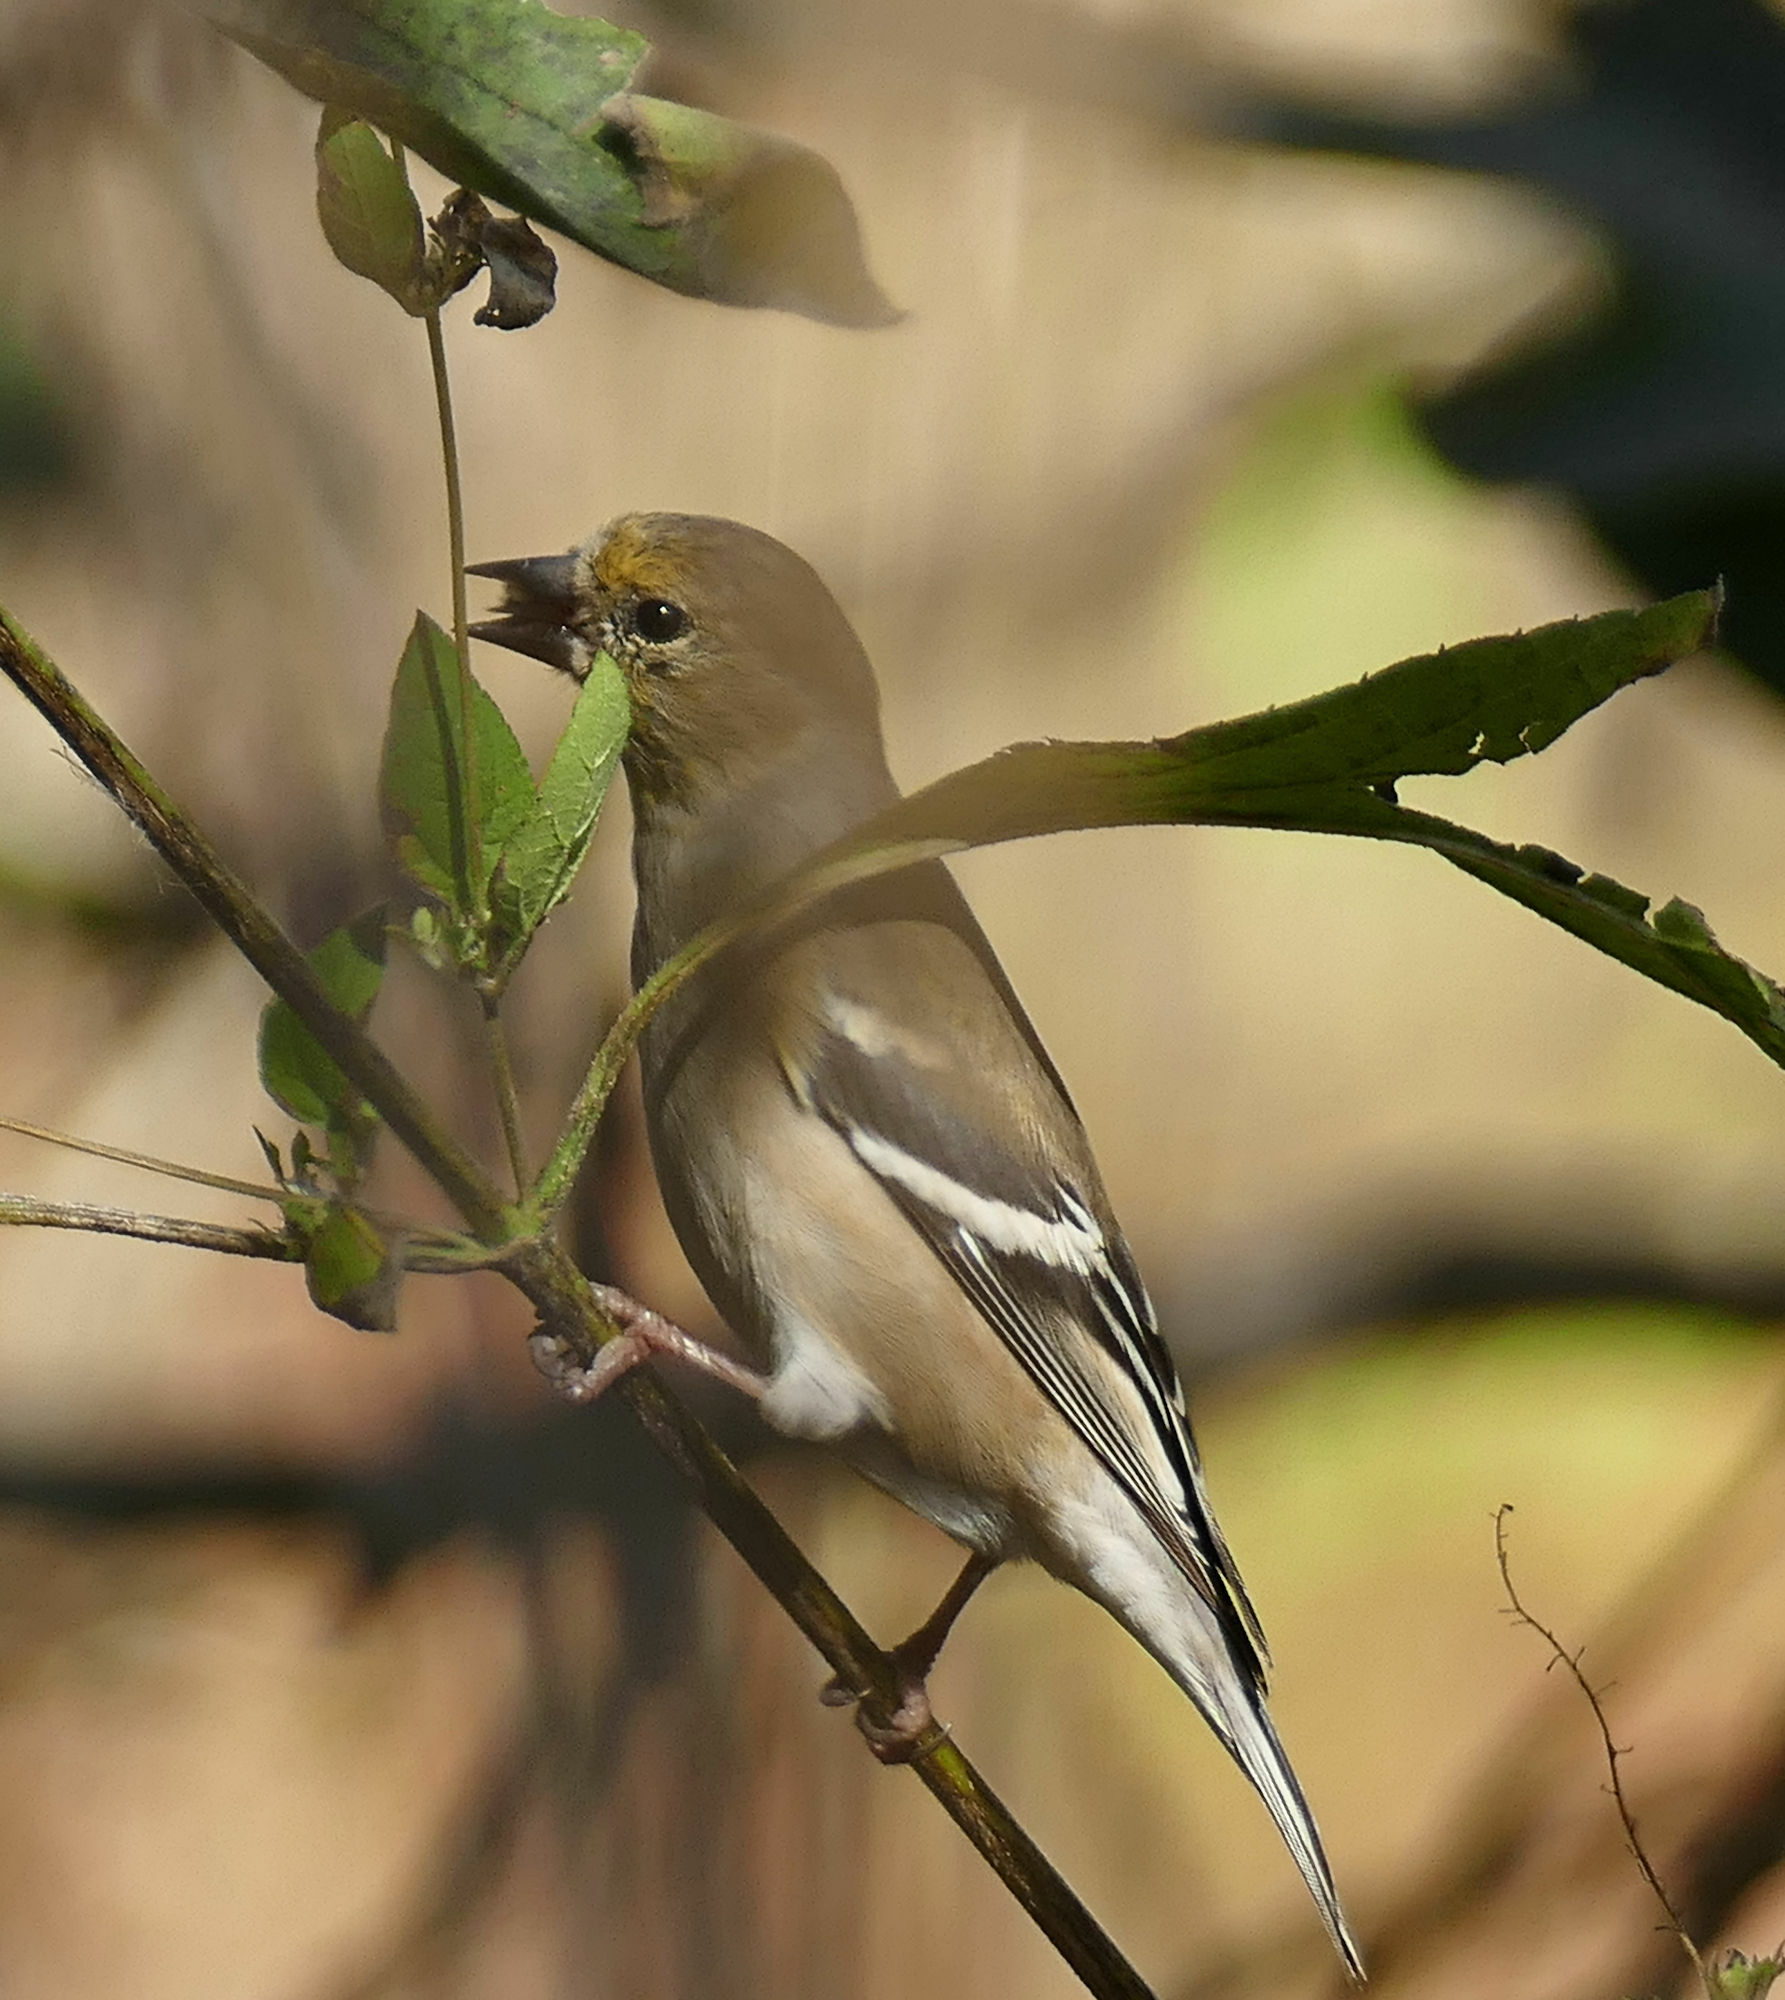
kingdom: Animalia
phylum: Chordata
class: Aves
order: Passeriformes
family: Fringillidae
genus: Spinus
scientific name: Spinus tristis
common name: American goldfinch
